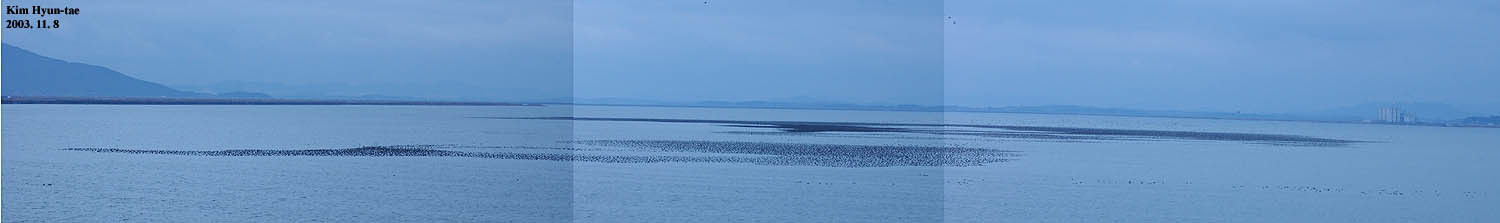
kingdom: Animalia
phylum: Chordata
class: Aves
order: Anseriformes
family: Anatidae
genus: Sibirionetta
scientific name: Sibirionetta formosa
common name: Baikal teal
